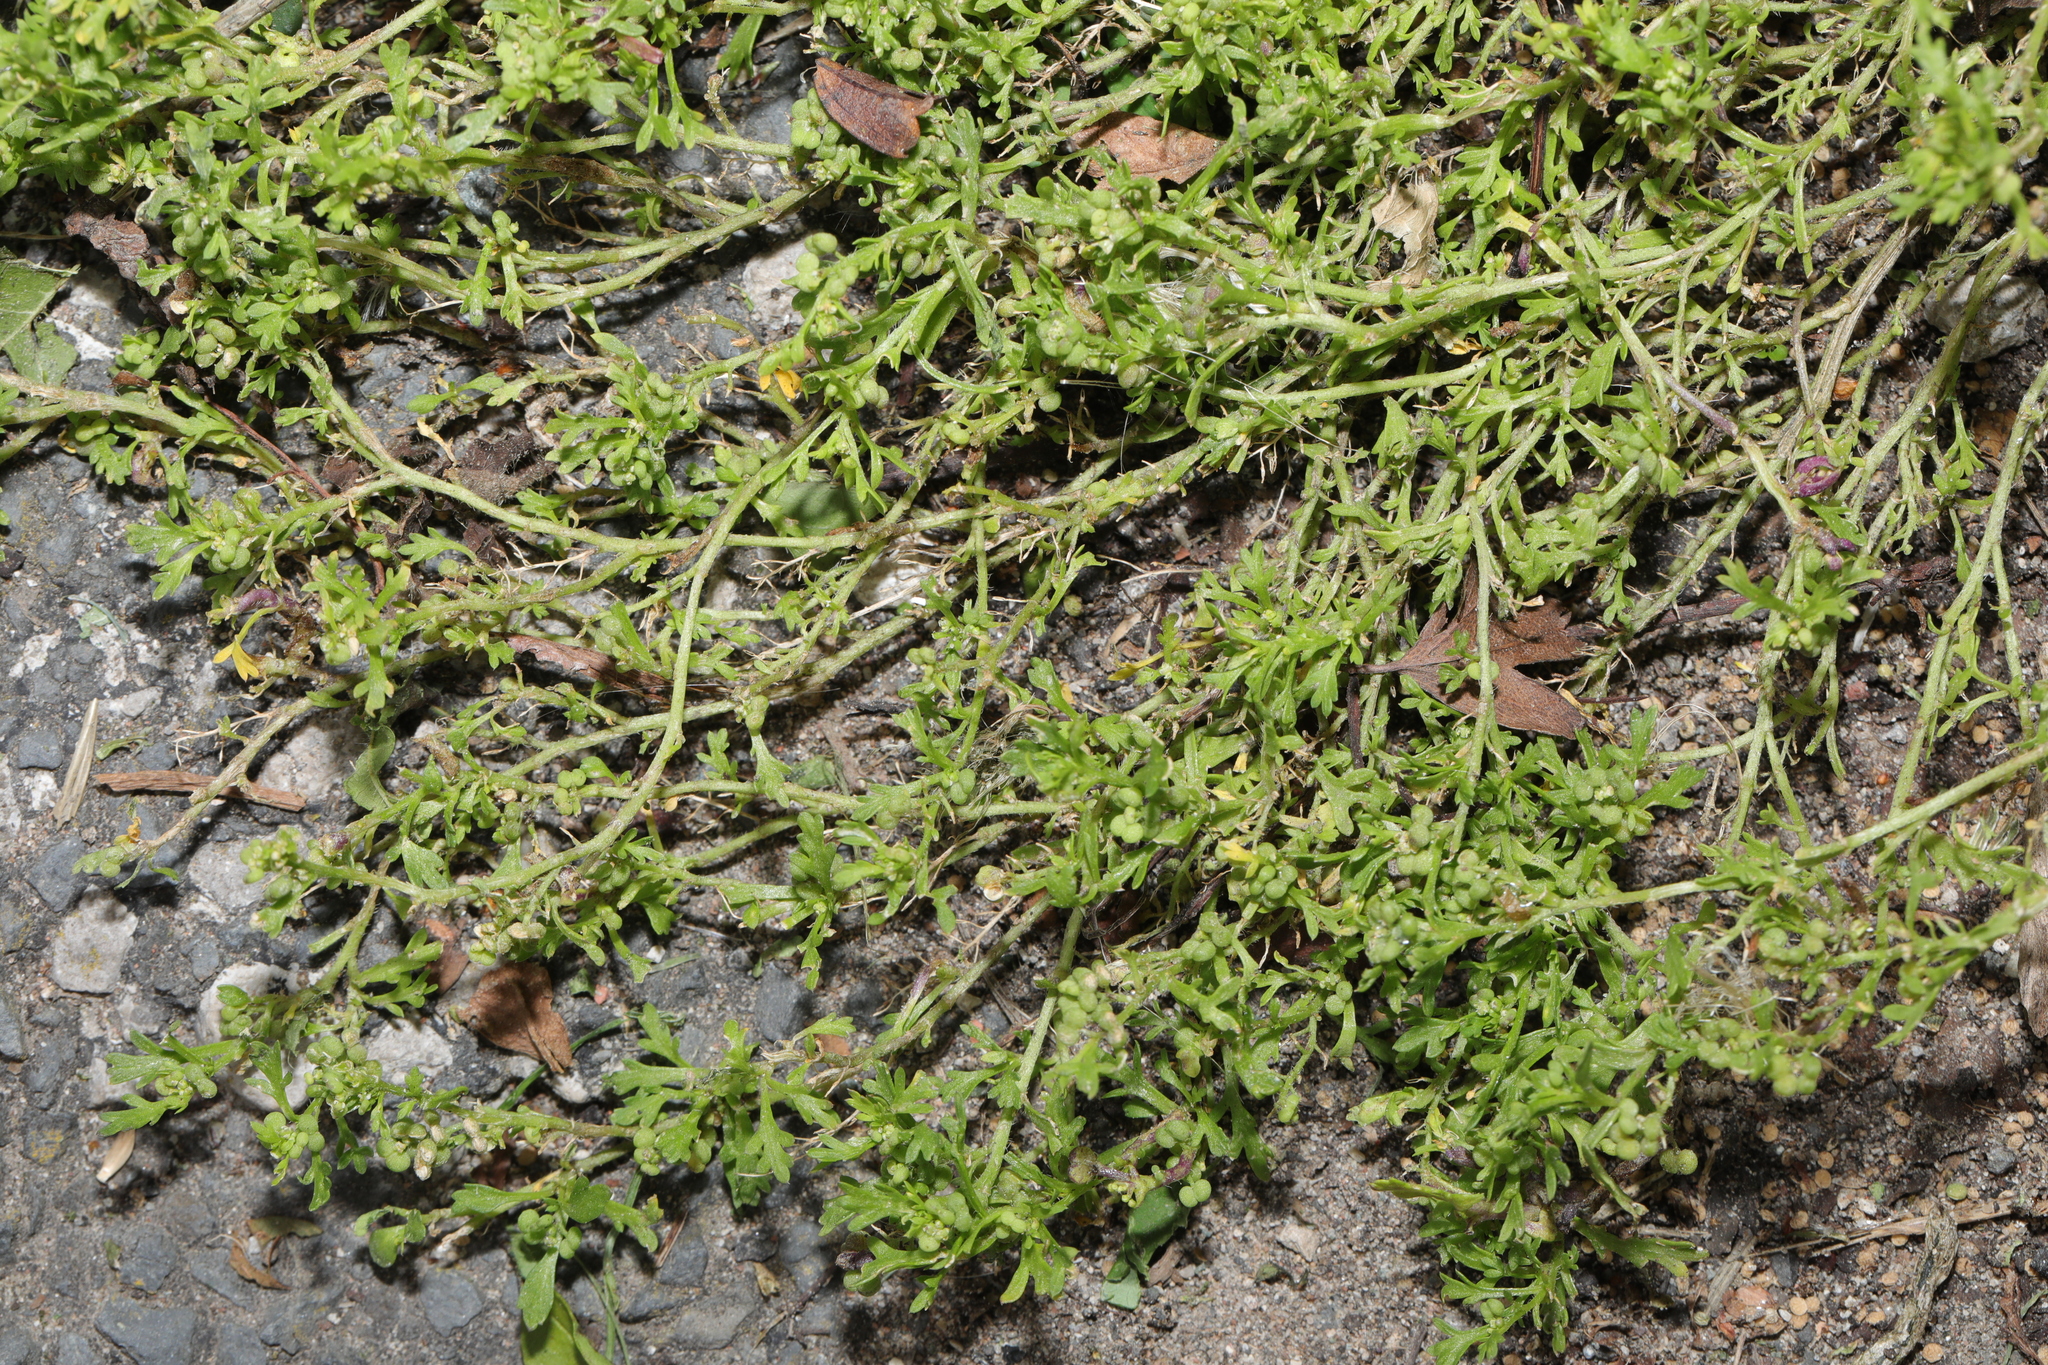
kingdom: Plantae
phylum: Tracheophyta
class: Magnoliopsida
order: Brassicales
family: Brassicaceae
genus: Lepidium
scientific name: Lepidium didymum
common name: Lesser swinecress
